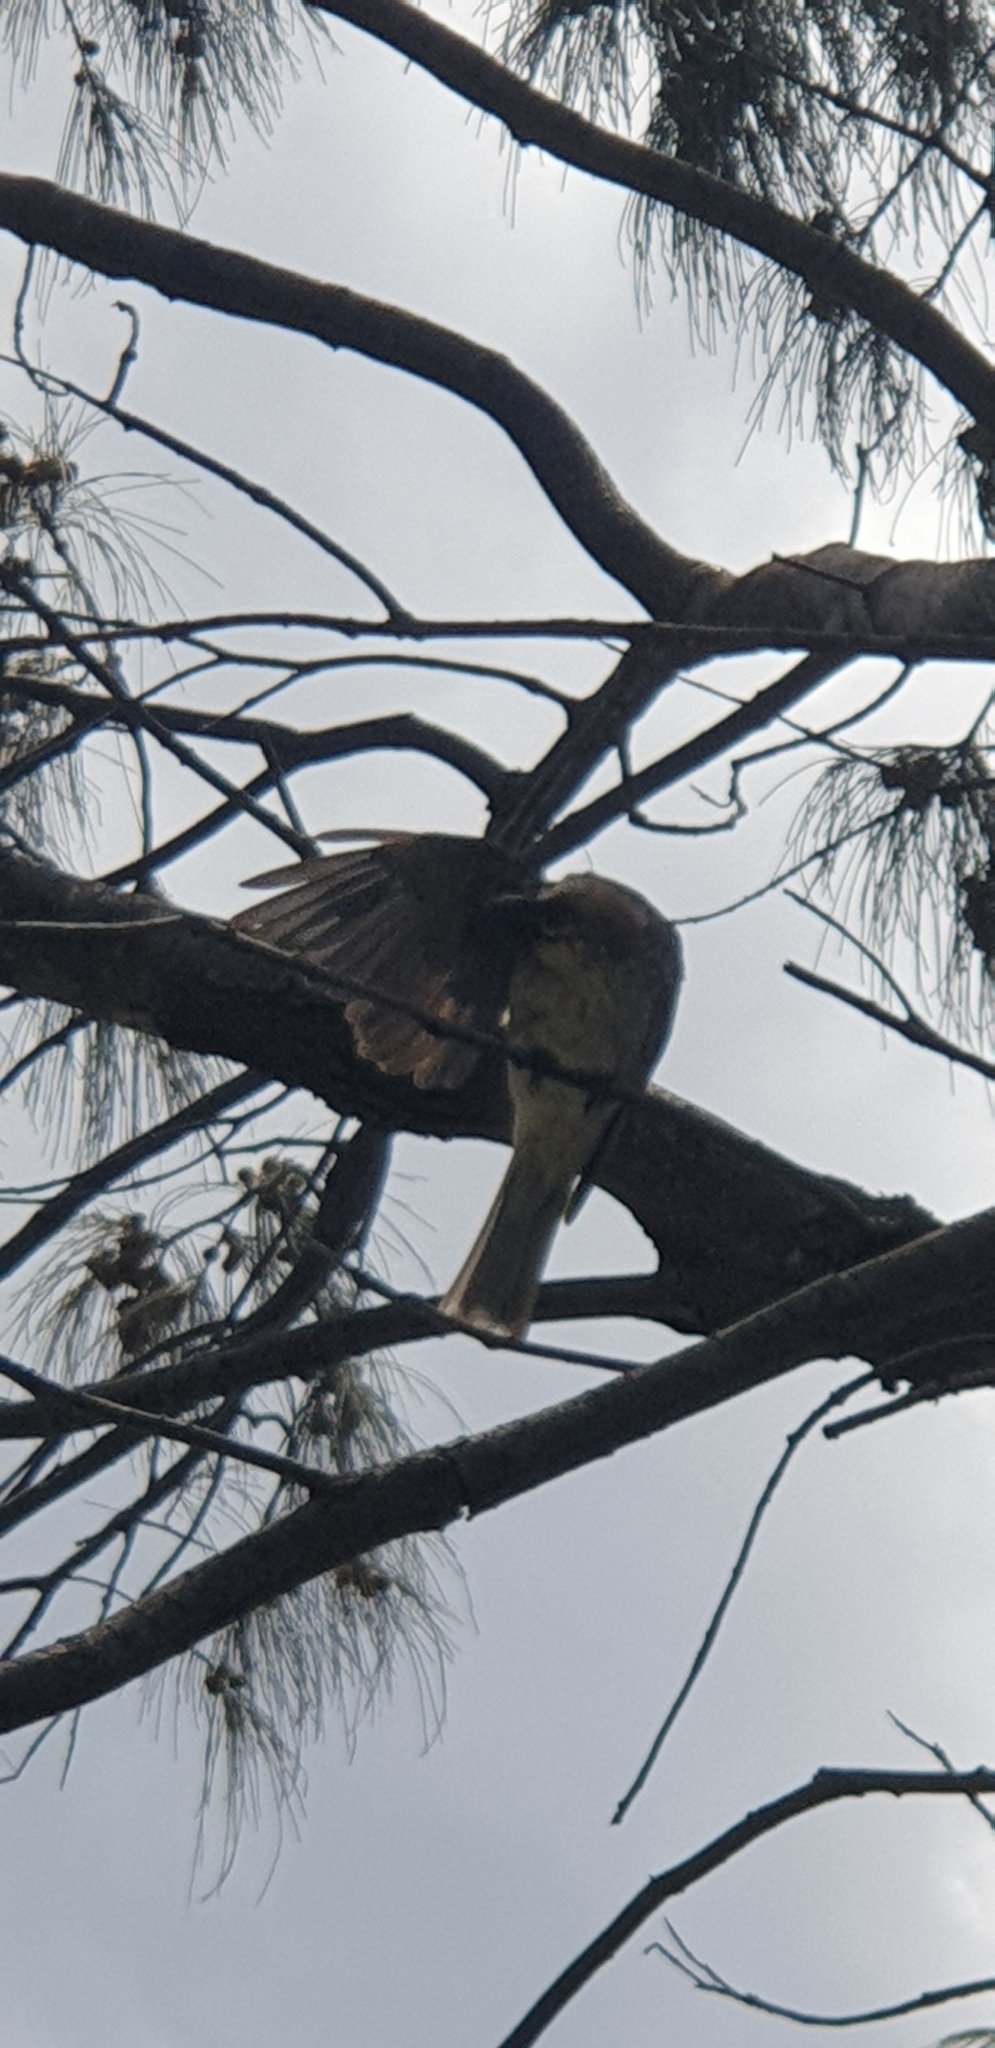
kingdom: Animalia
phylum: Chordata
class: Aves
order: Passeriformes
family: Meliphagidae
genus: Philemon
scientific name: Philemon corniculatus
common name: Noisy friarbird
